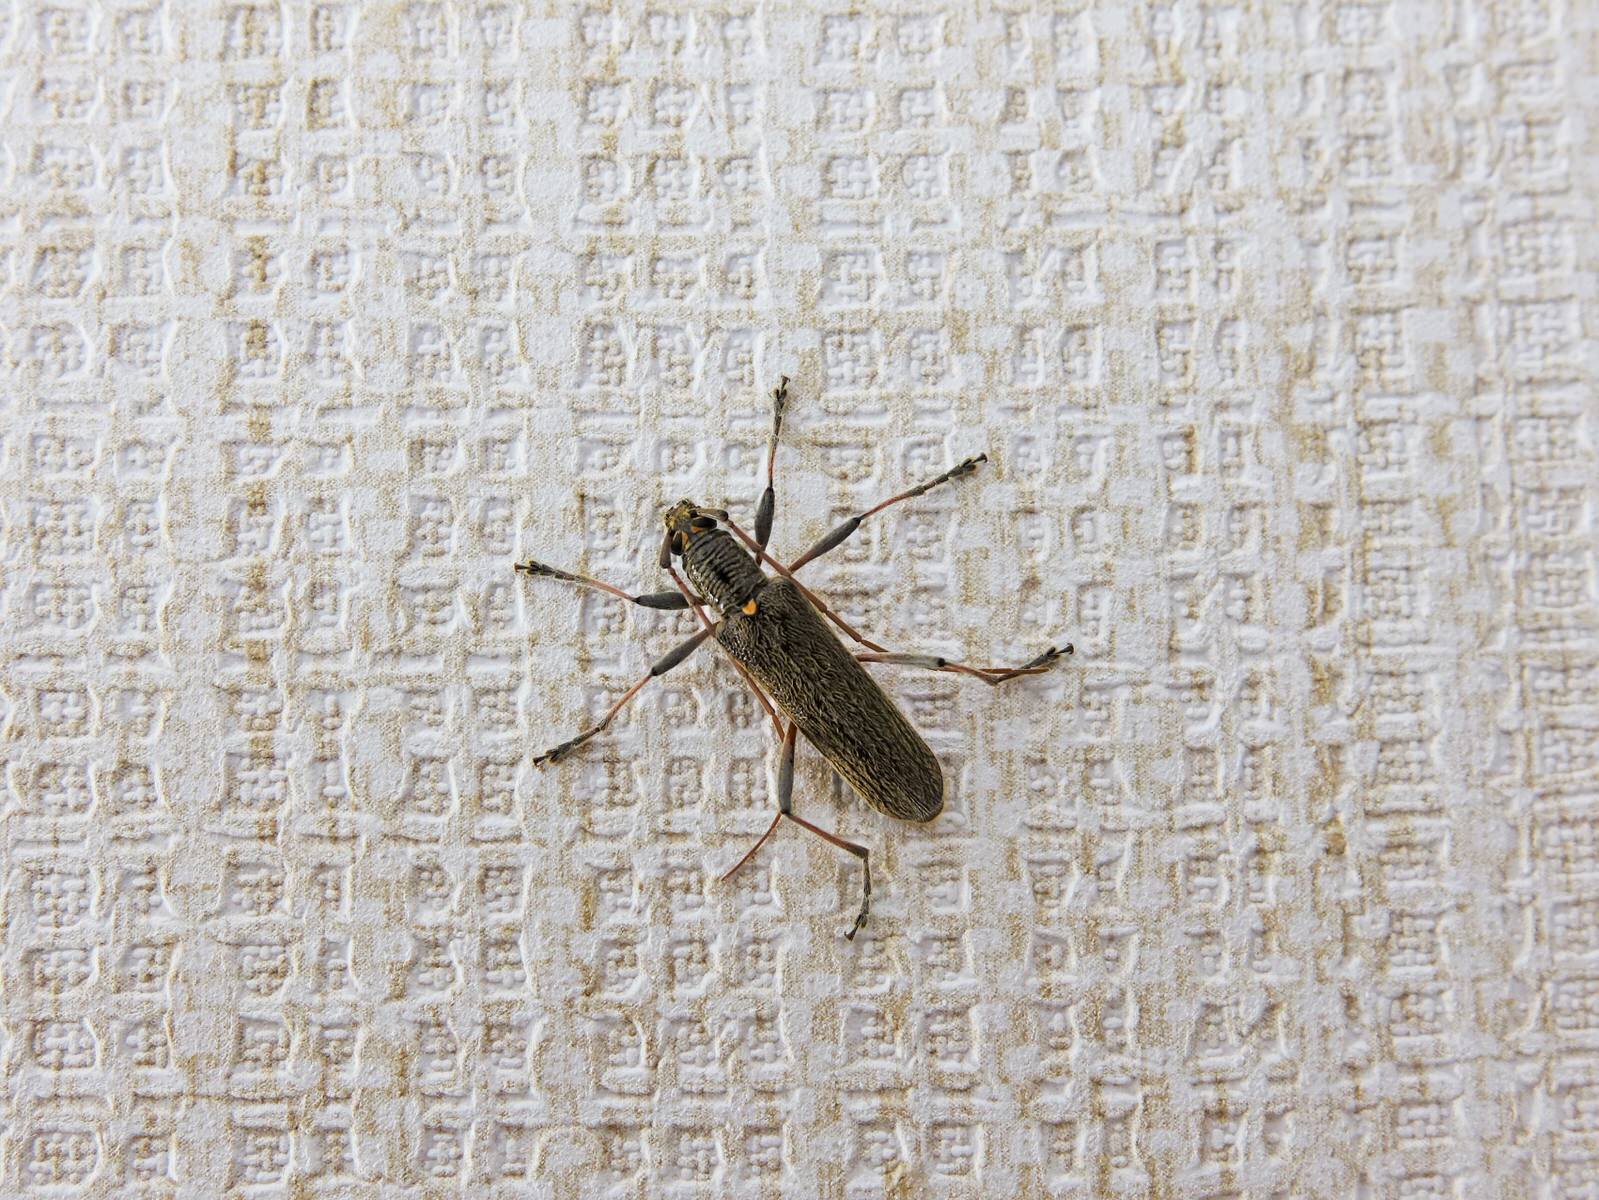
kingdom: Animalia
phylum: Arthropoda
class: Insecta
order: Coleoptera
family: Cerambycidae
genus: Oemona
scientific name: Oemona hirta
